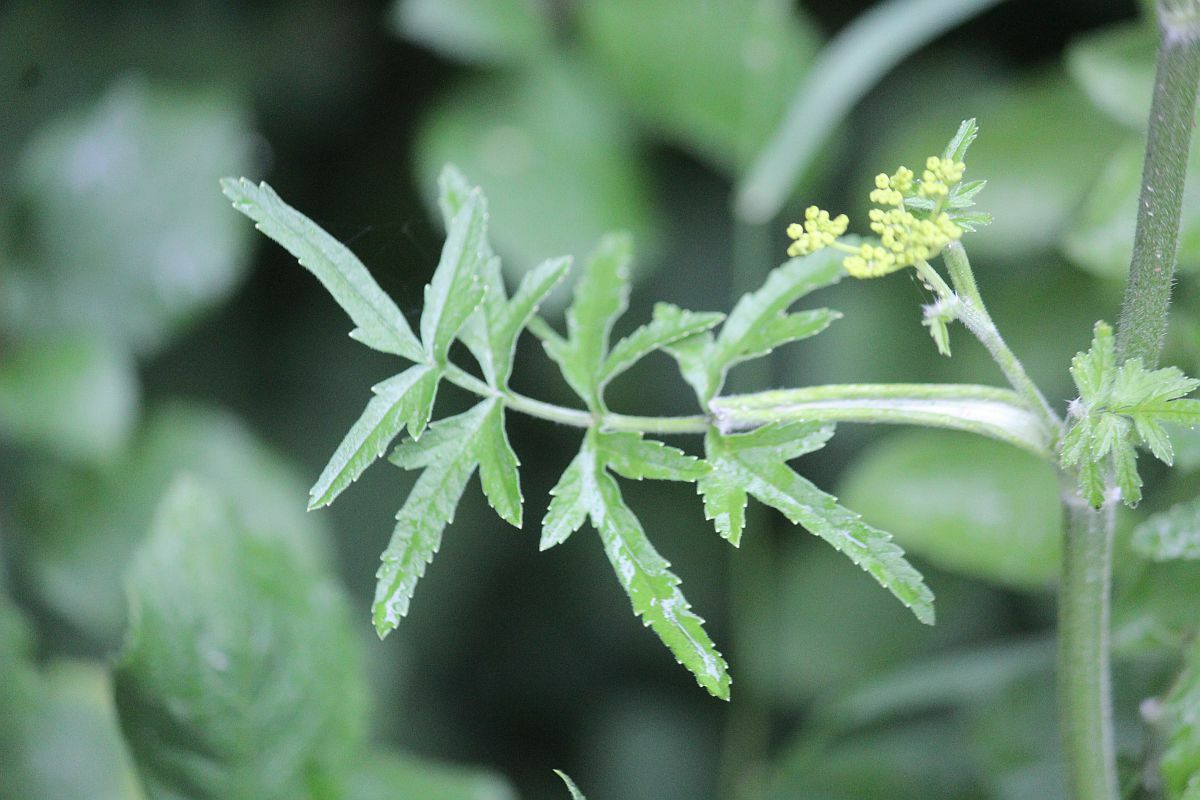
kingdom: Plantae
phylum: Tracheophyta
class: Magnoliopsida
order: Apiales
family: Apiaceae
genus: Pastinaca
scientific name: Pastinaca sativa
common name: Wild parsnip
